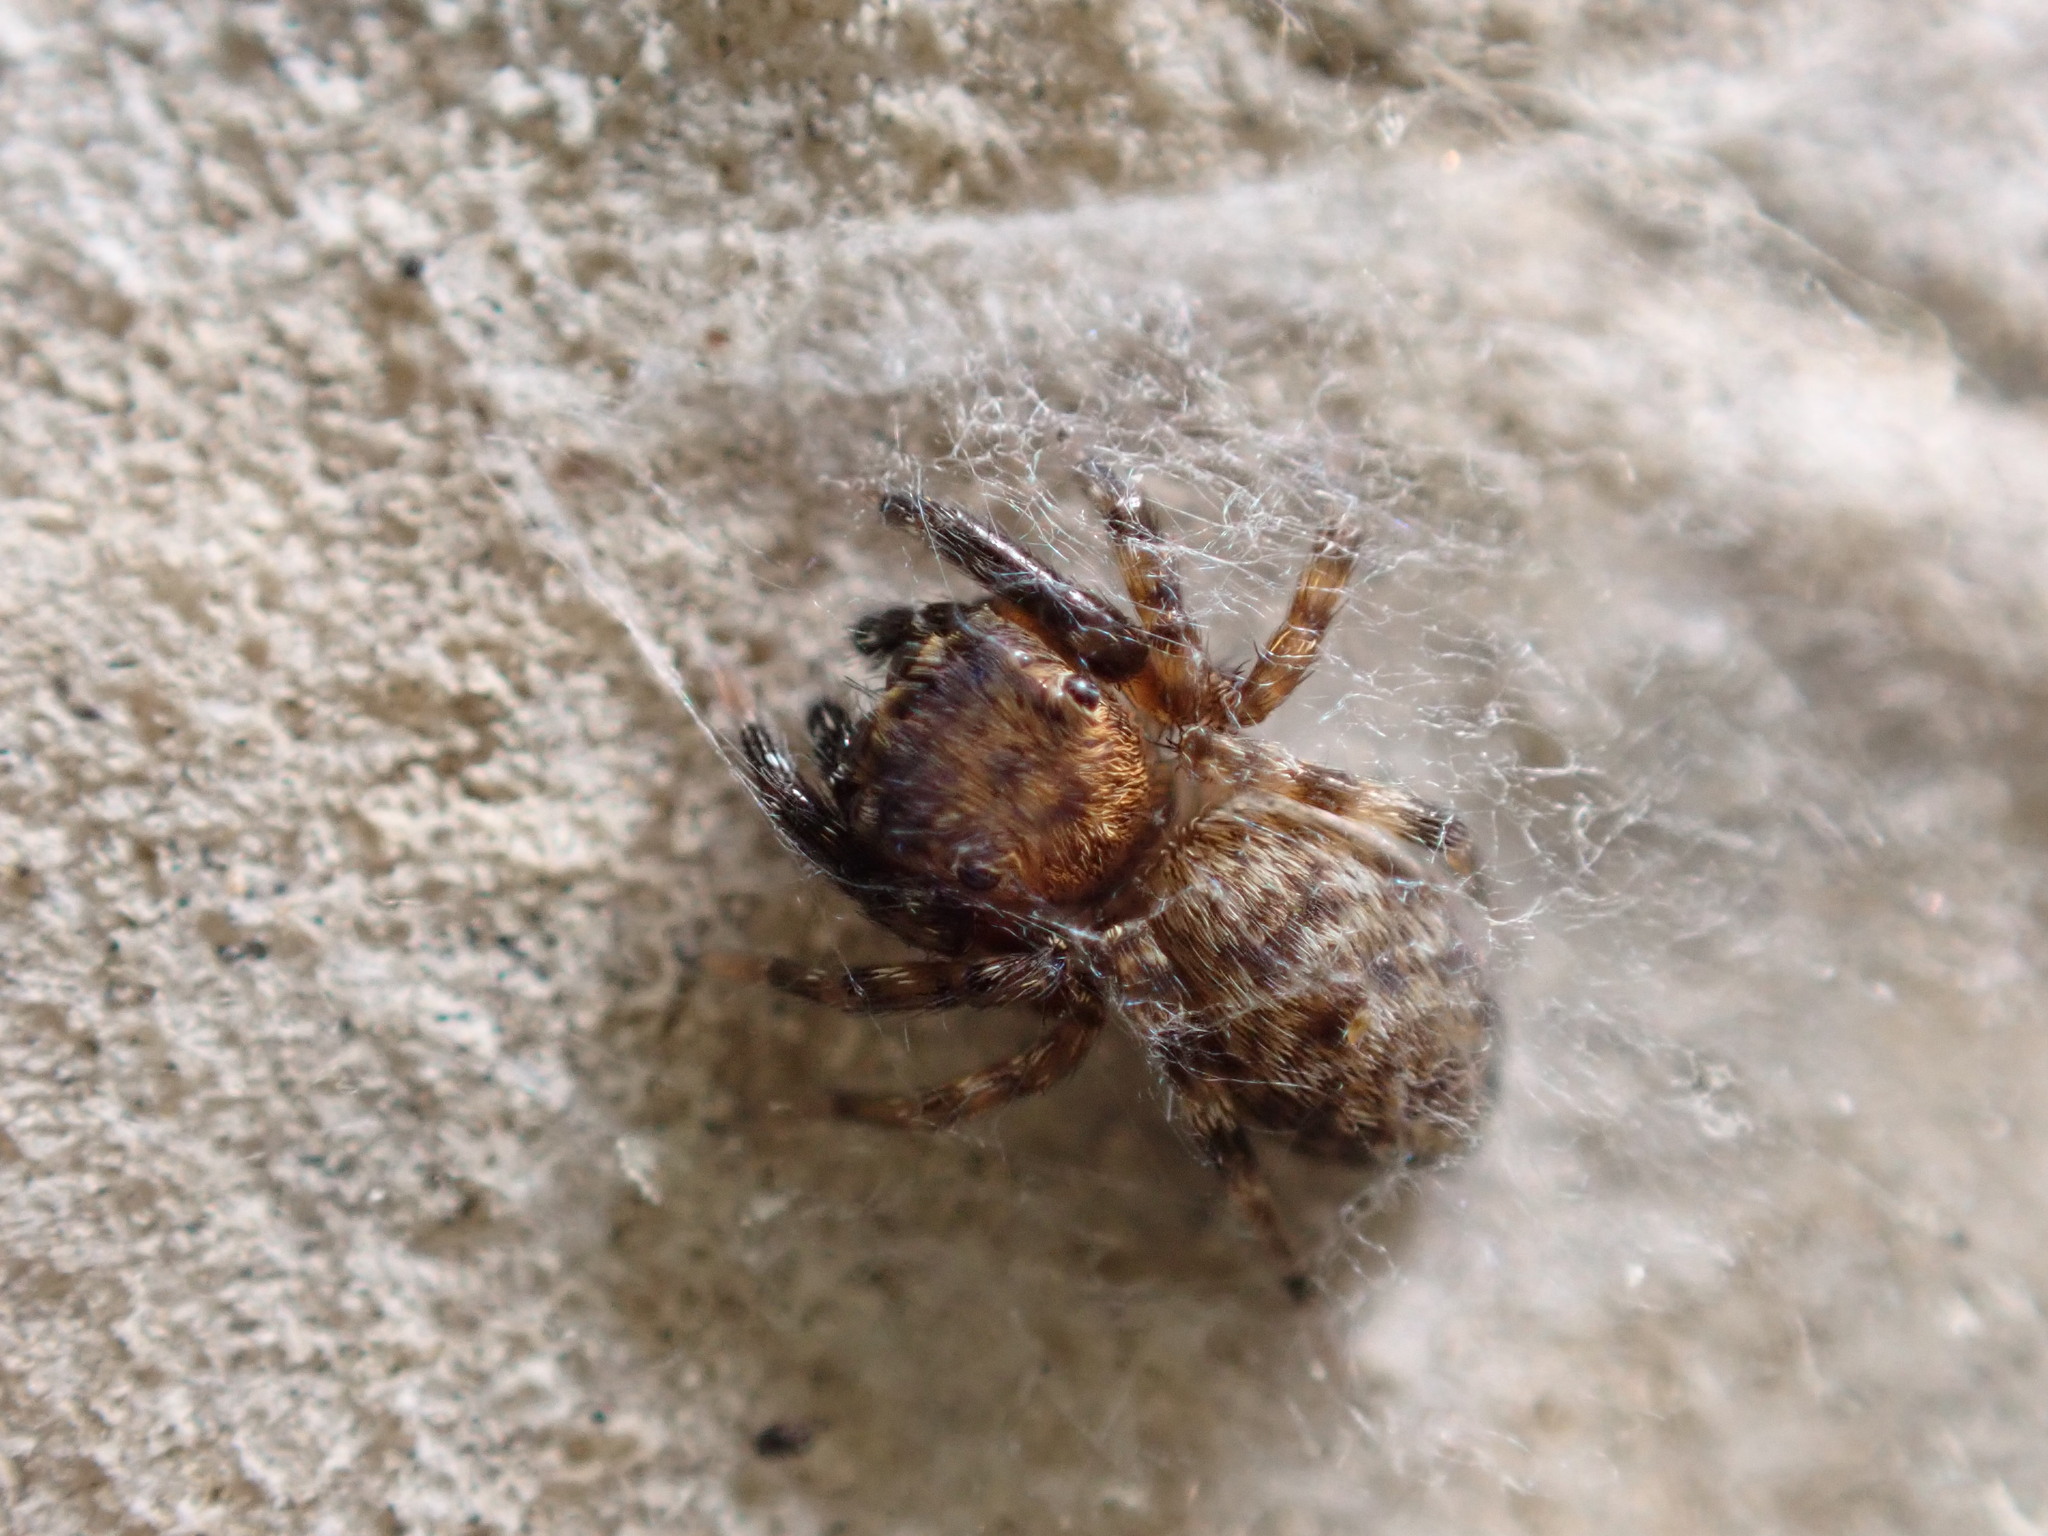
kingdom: Animalia
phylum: Arthropoda
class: Arachnida
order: Araneae
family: Salticidae
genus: Cyrba
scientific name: Cyrba algerina
